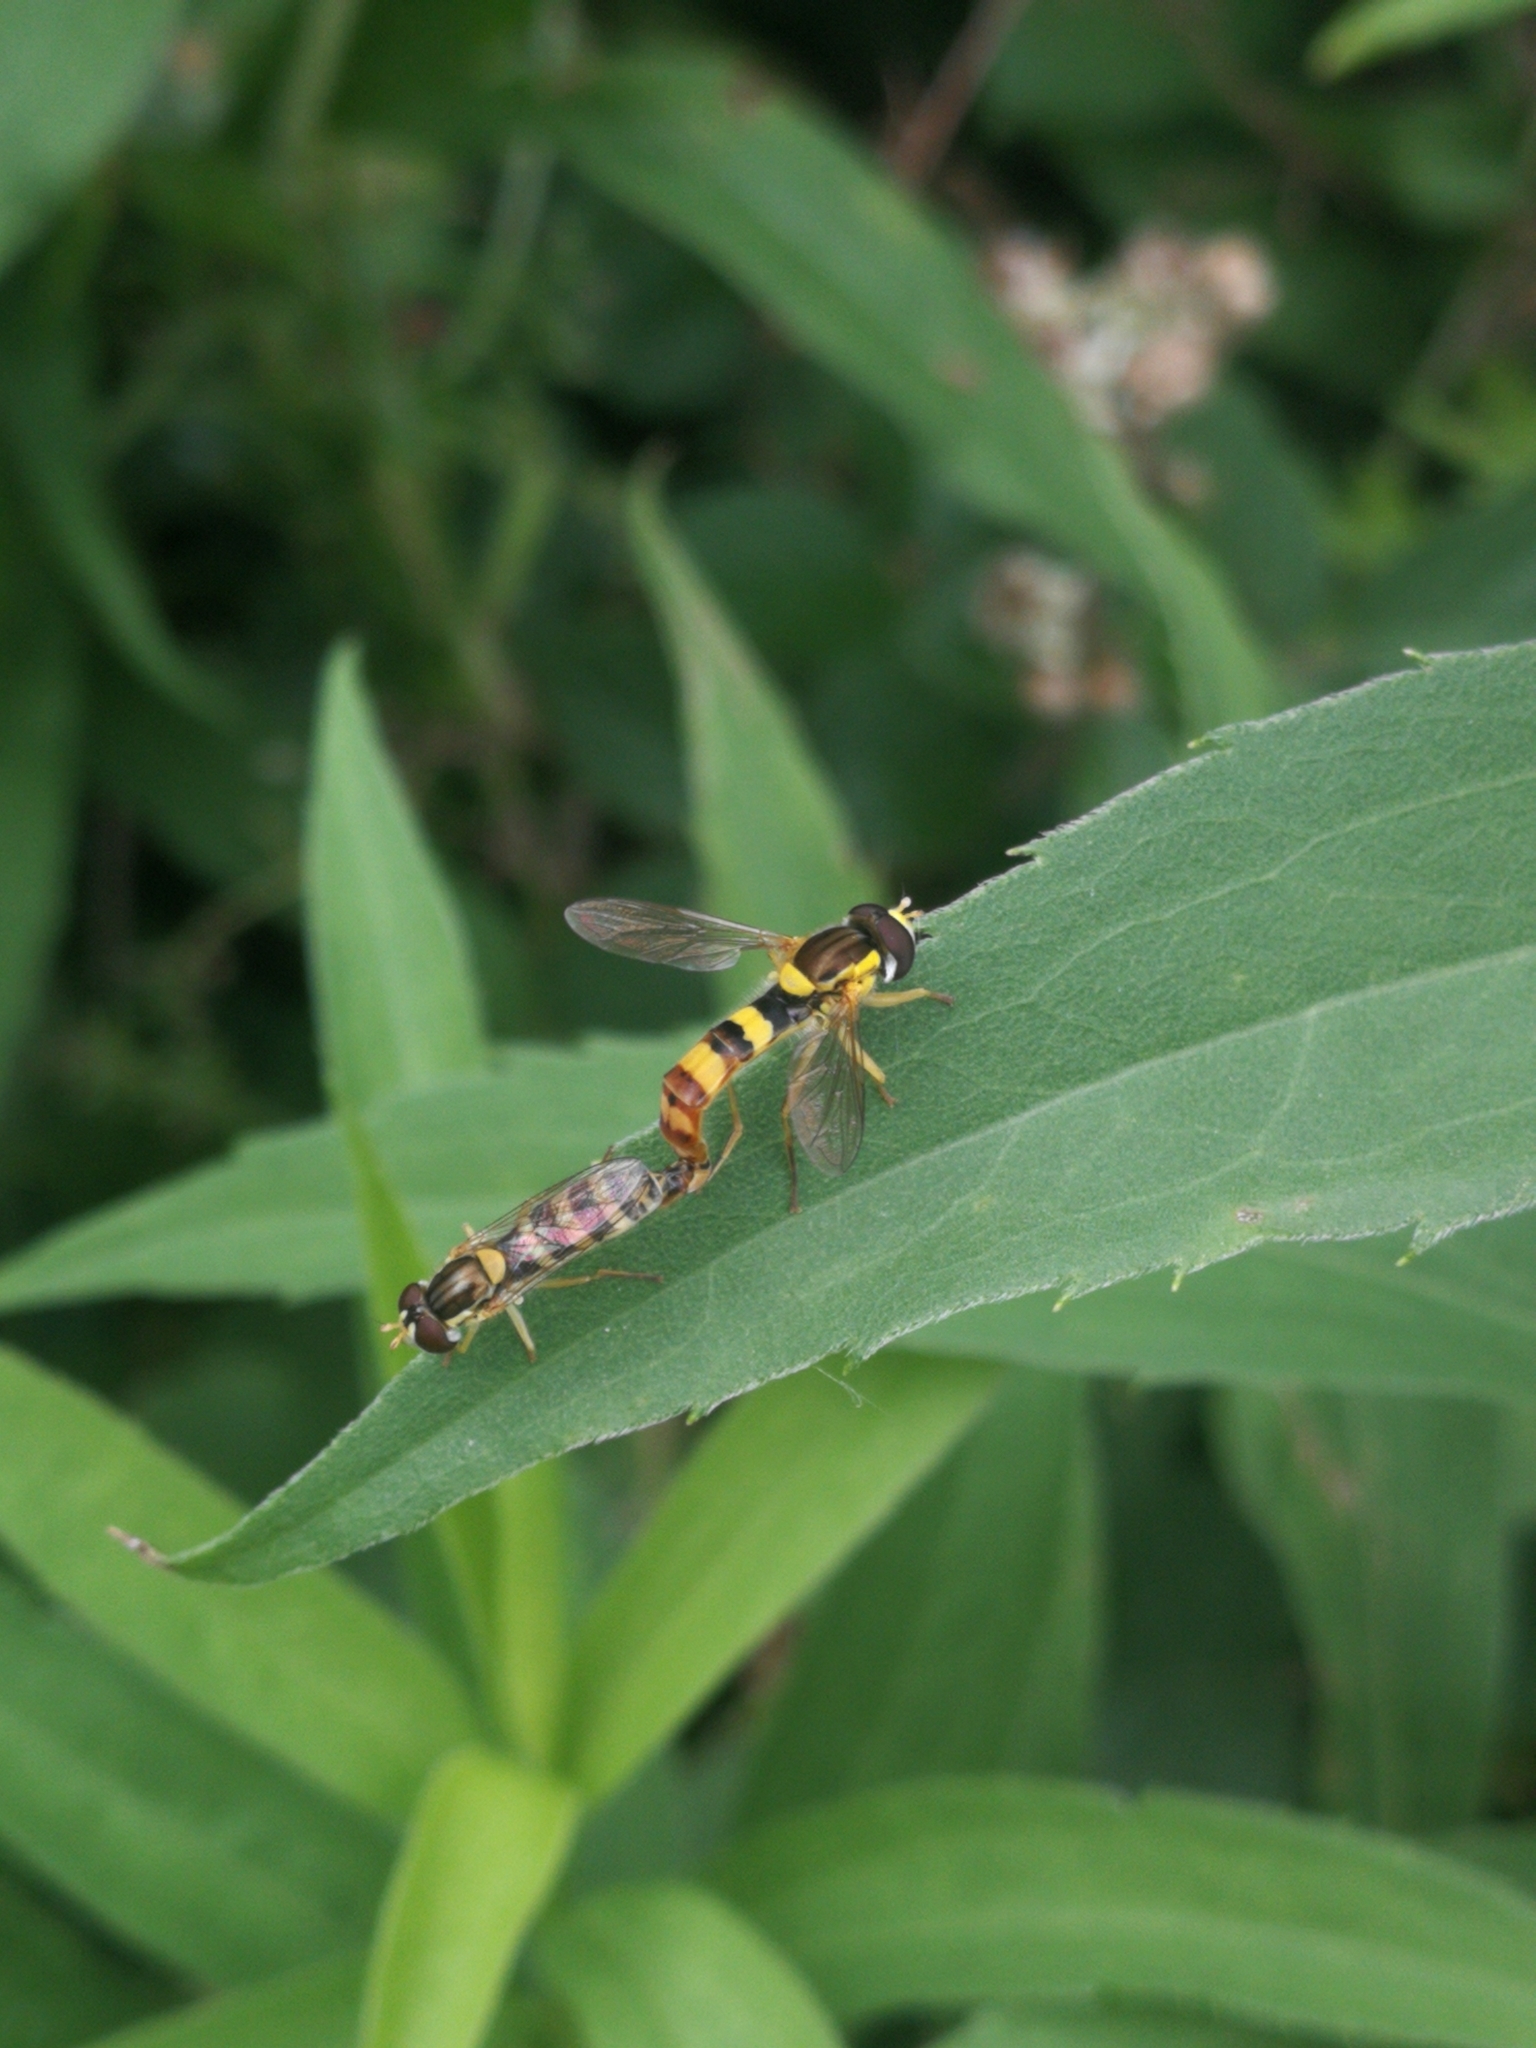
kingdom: Animalia
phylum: Arthropoda
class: Insecta
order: Diptera
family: Syrphidae
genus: Sphaerophoria
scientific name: Sphaerophoria
